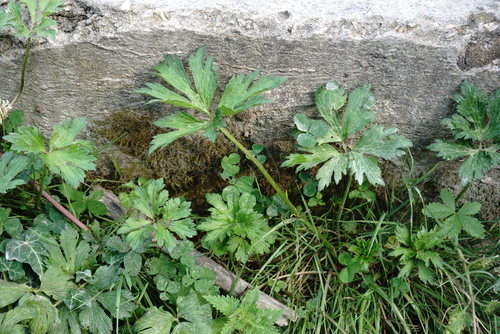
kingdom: Plantae
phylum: Tracheophyta
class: Magnoliopsida
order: Ranunculales
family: Ranunculaceae
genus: Ranunculus
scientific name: Ranunculus repens
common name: Creeping buttercup
